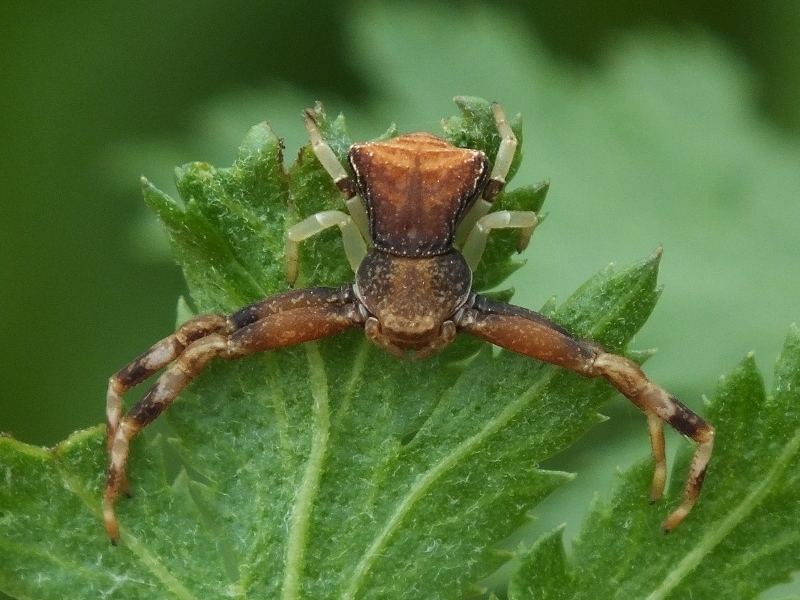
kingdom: Animalia
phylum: Arthropoda
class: Arachnida
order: Araneae
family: Thomisidae
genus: Pistius
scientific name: Pistius truncatus
